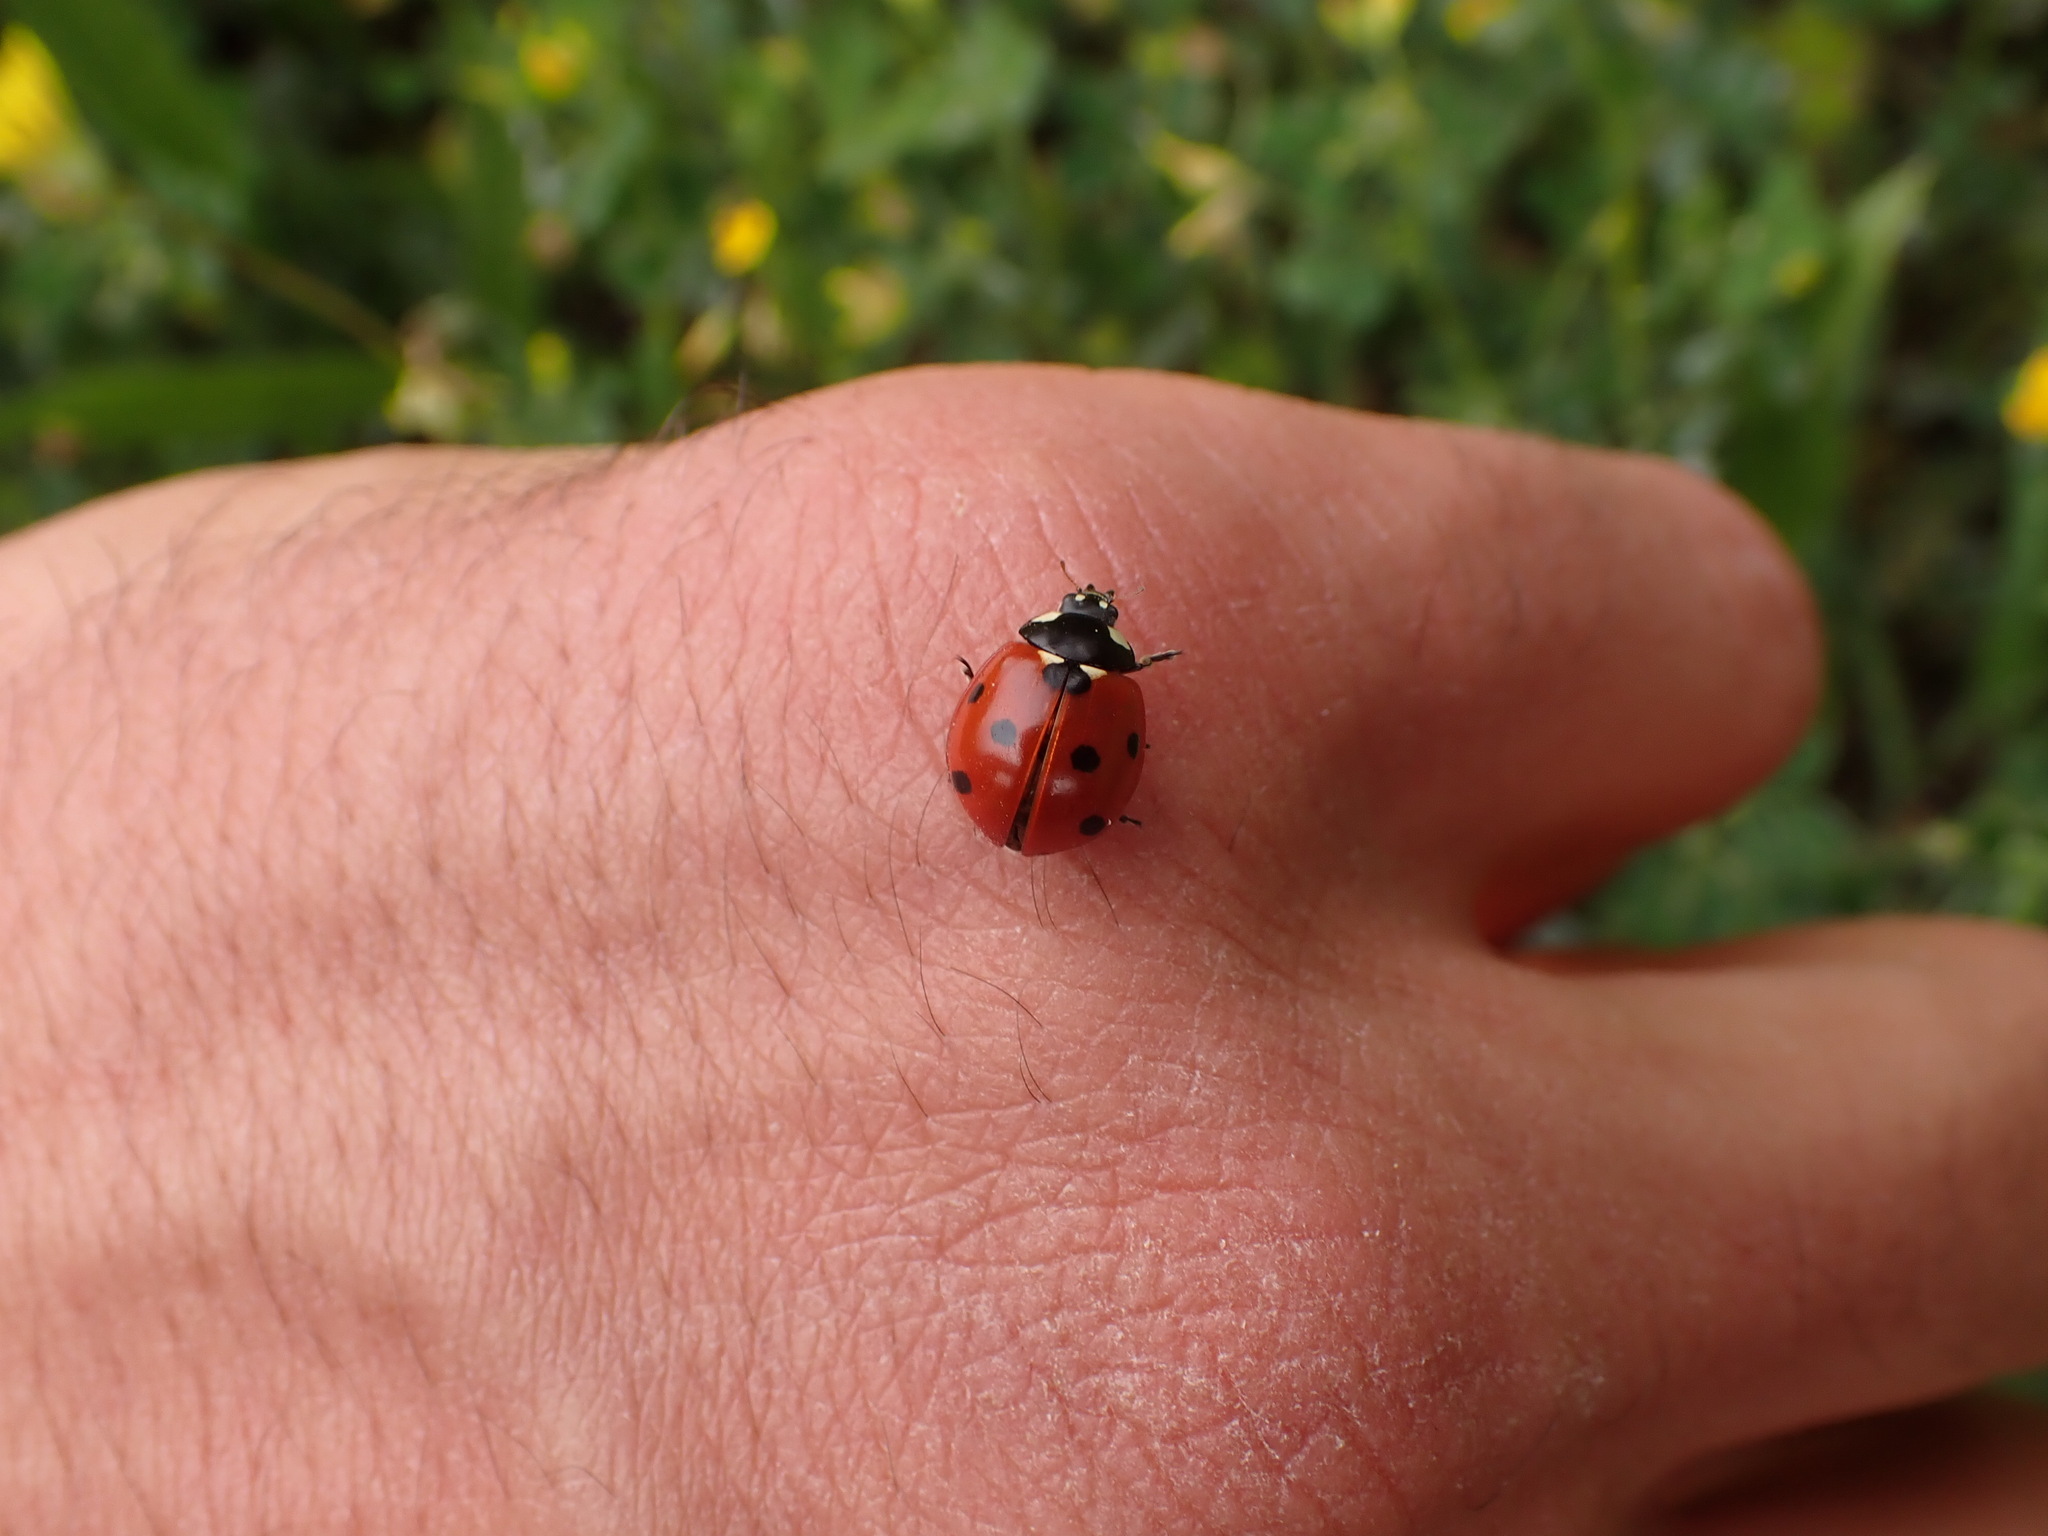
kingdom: Animalia
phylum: Arthropoda
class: Insecta
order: Coleoptera
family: Coccinellidae
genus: Coccinella
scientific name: Coccinella septempunctata
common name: Sevenspotted lady beetle
